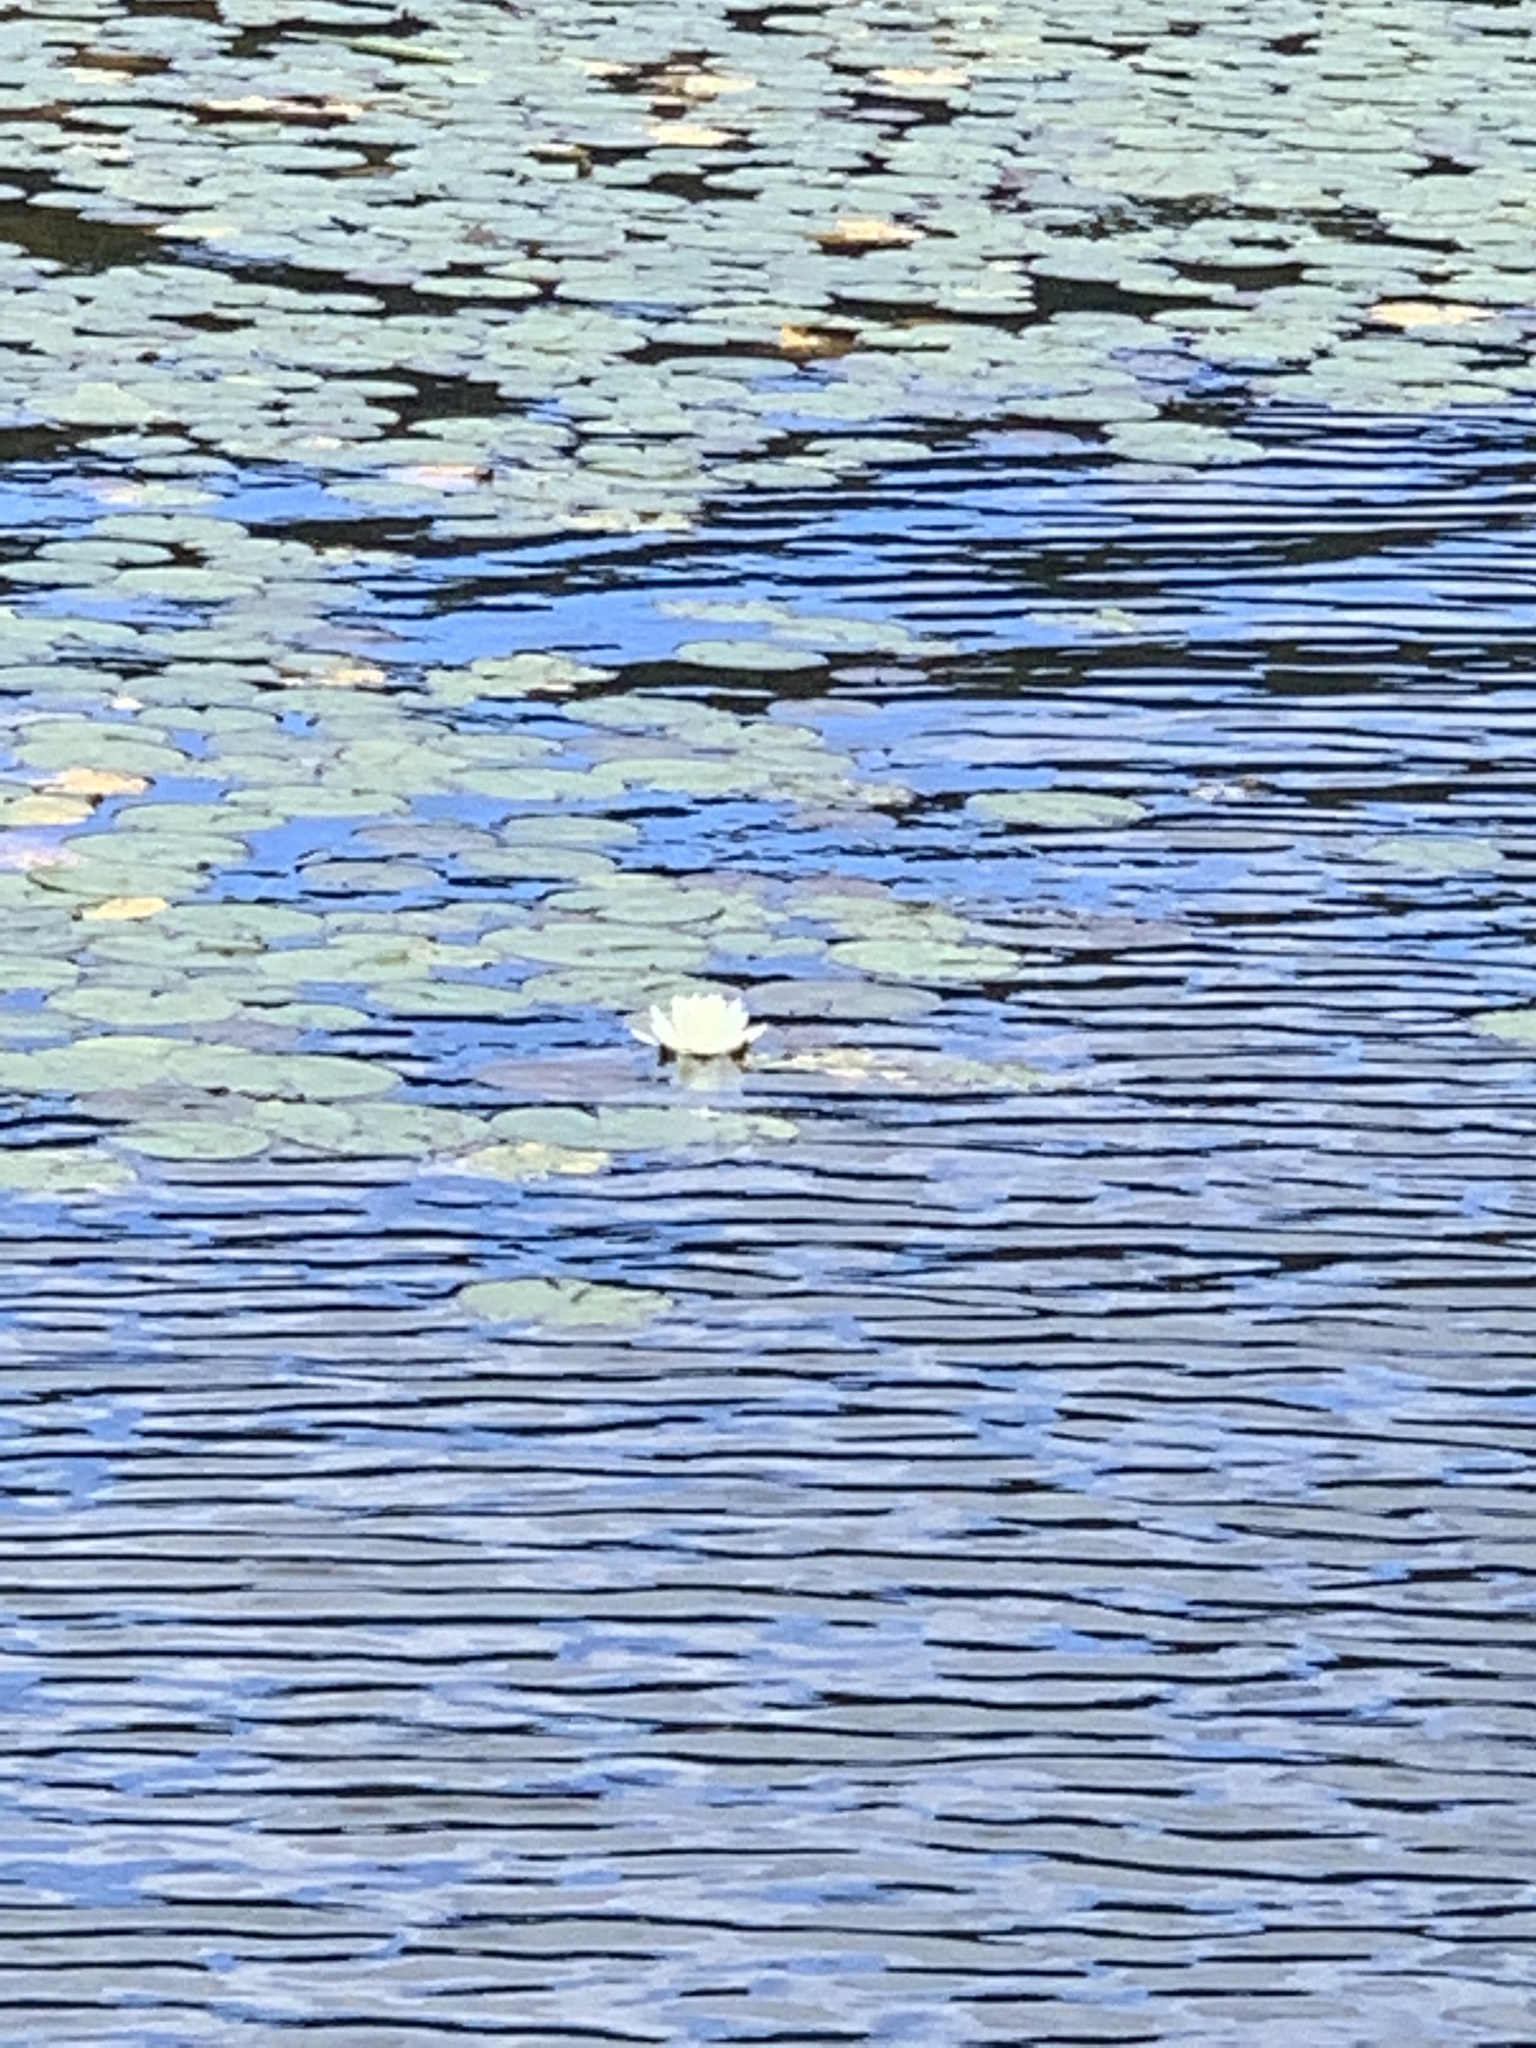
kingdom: Plantae
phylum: Tracheophyta
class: Magnoliopsida
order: Nymphaeales
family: Nymphaeaceae
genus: Nymphaea
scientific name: Nymphaea odorata
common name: Fragrant water-lily
